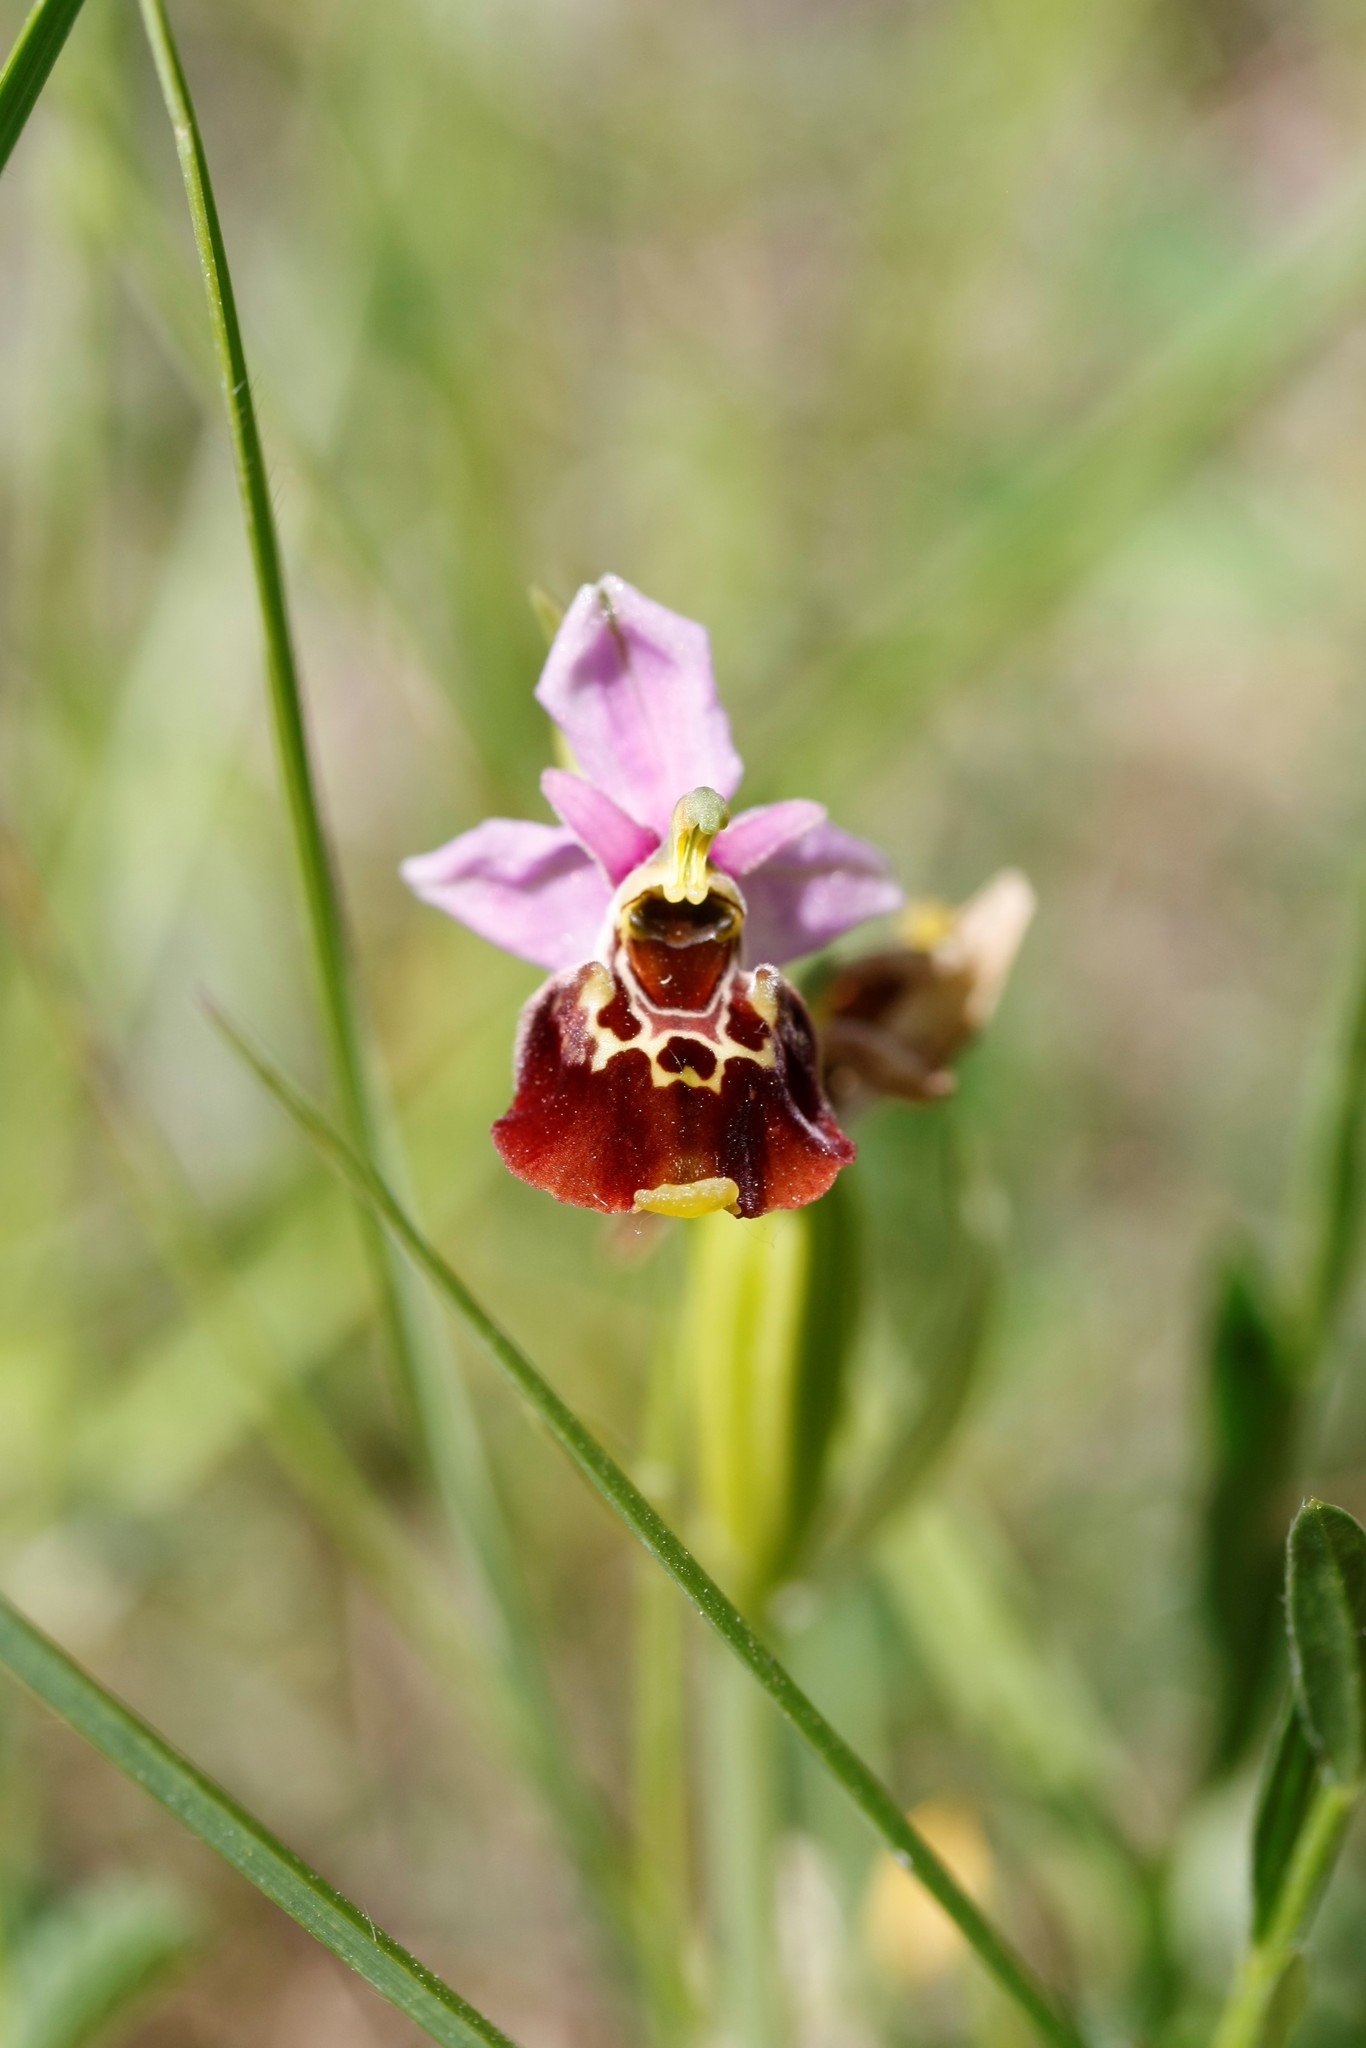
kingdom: Plantae
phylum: Tracheophyta
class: Liliopsida
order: Asparagales
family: Orchidaceae
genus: Ophrys
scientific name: Ophrys holosericea
